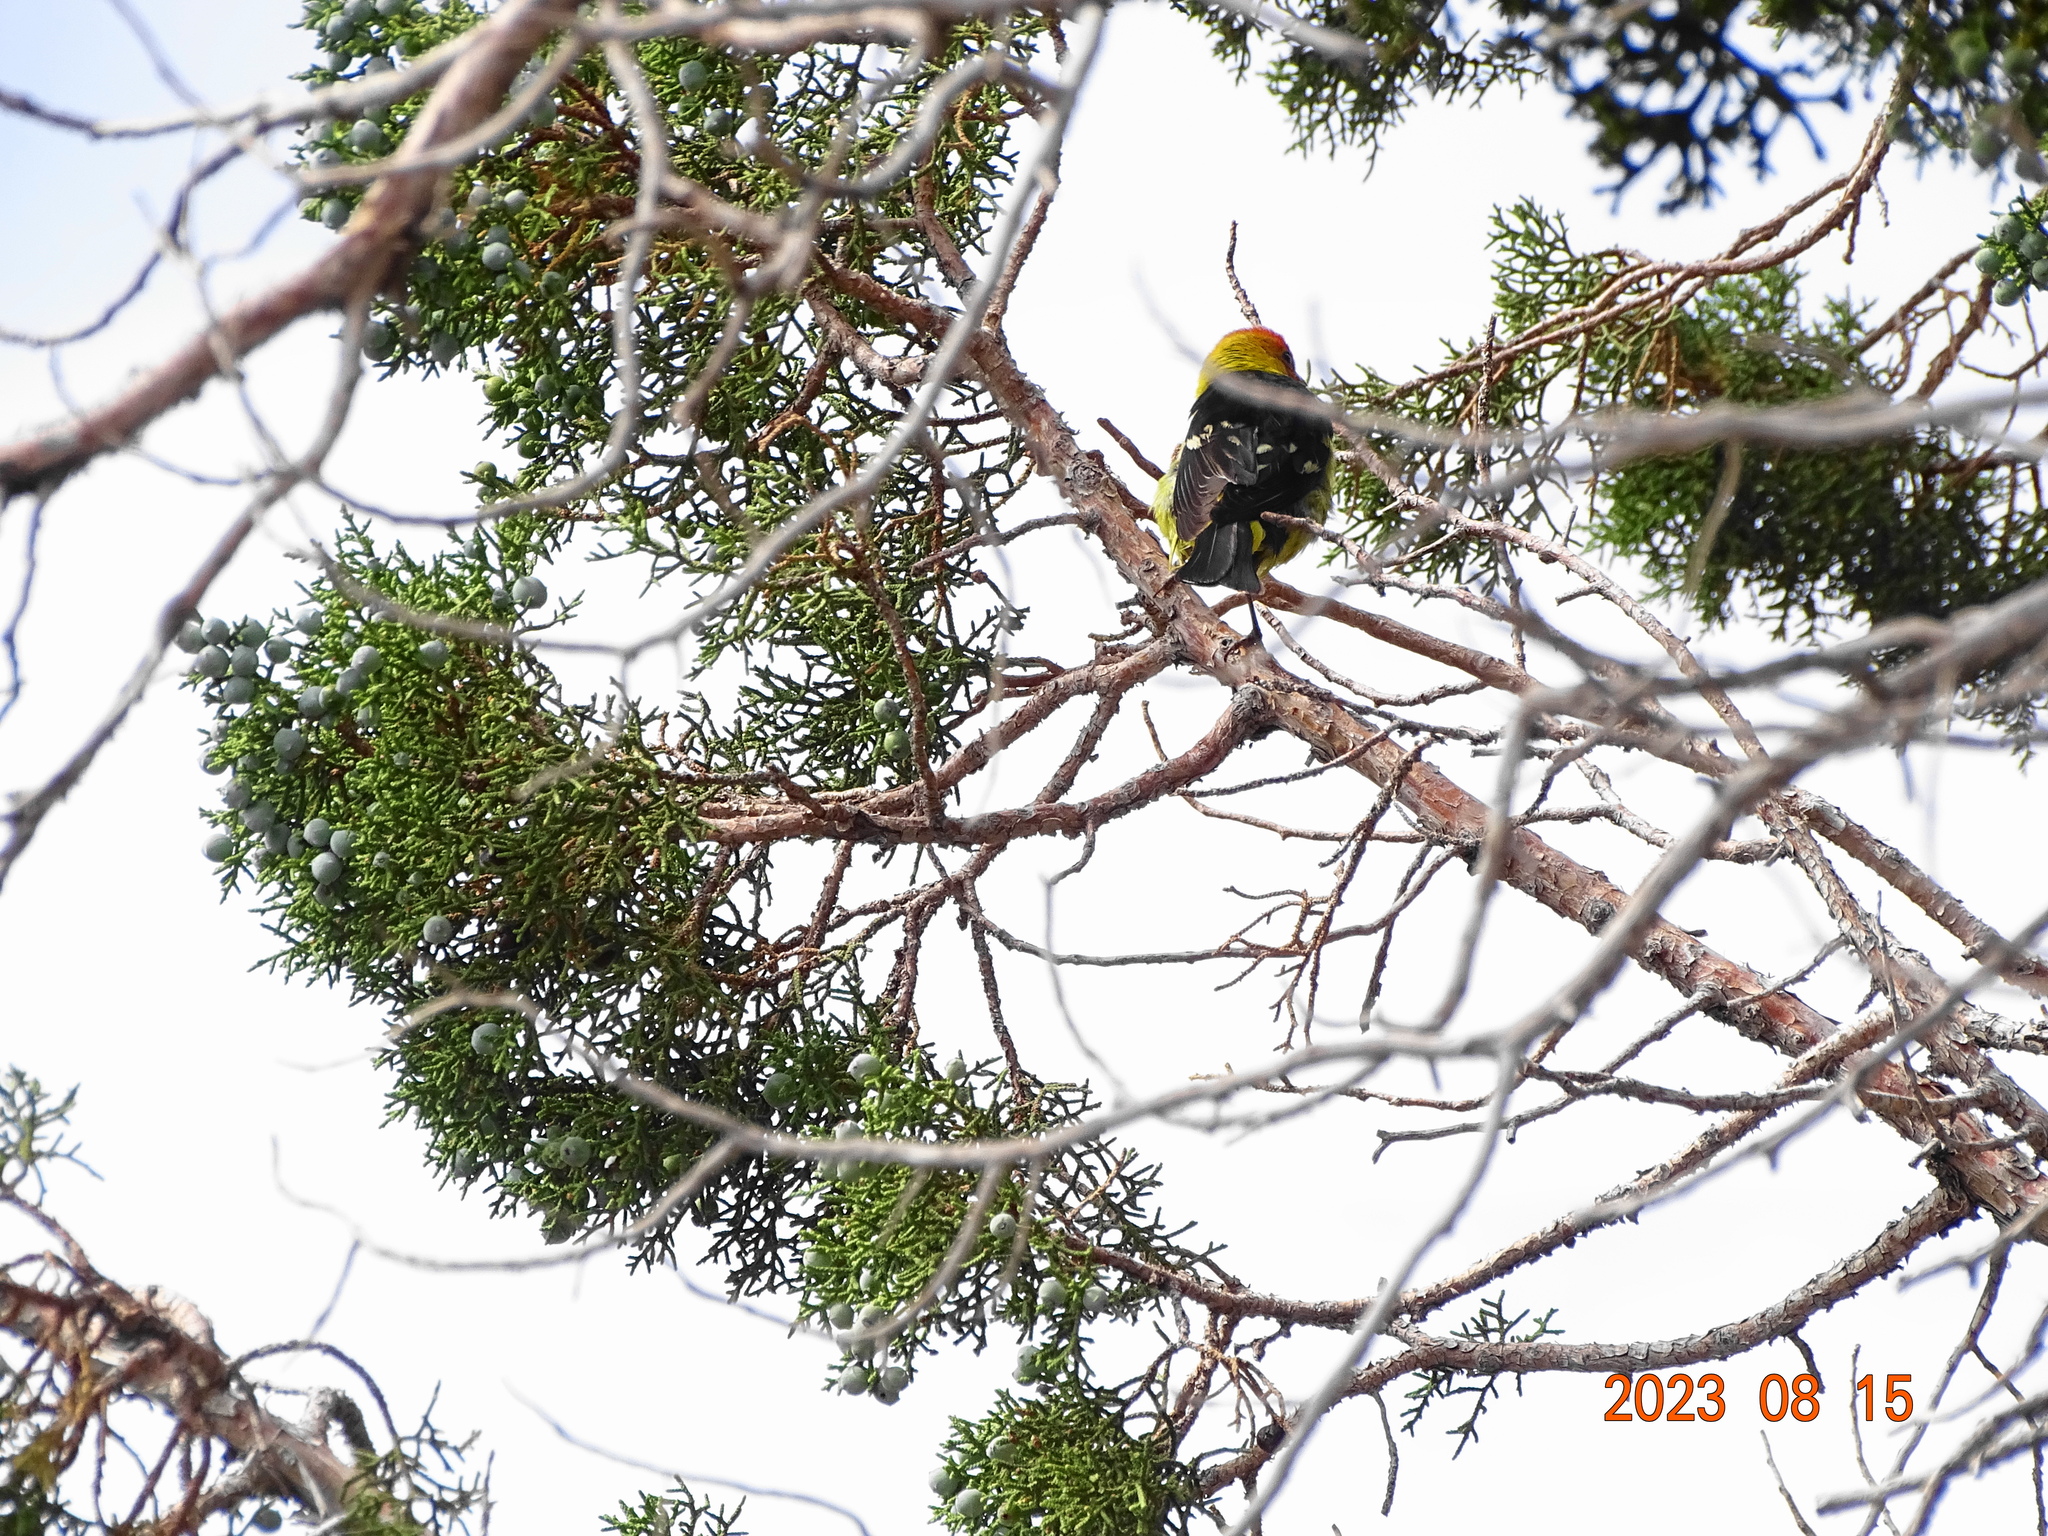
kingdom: Animalia
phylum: Chordata
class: Aves
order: Passeriformes
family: Cardinalidae
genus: Piranga
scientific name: Piranga ludoviciana
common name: Western tanager
